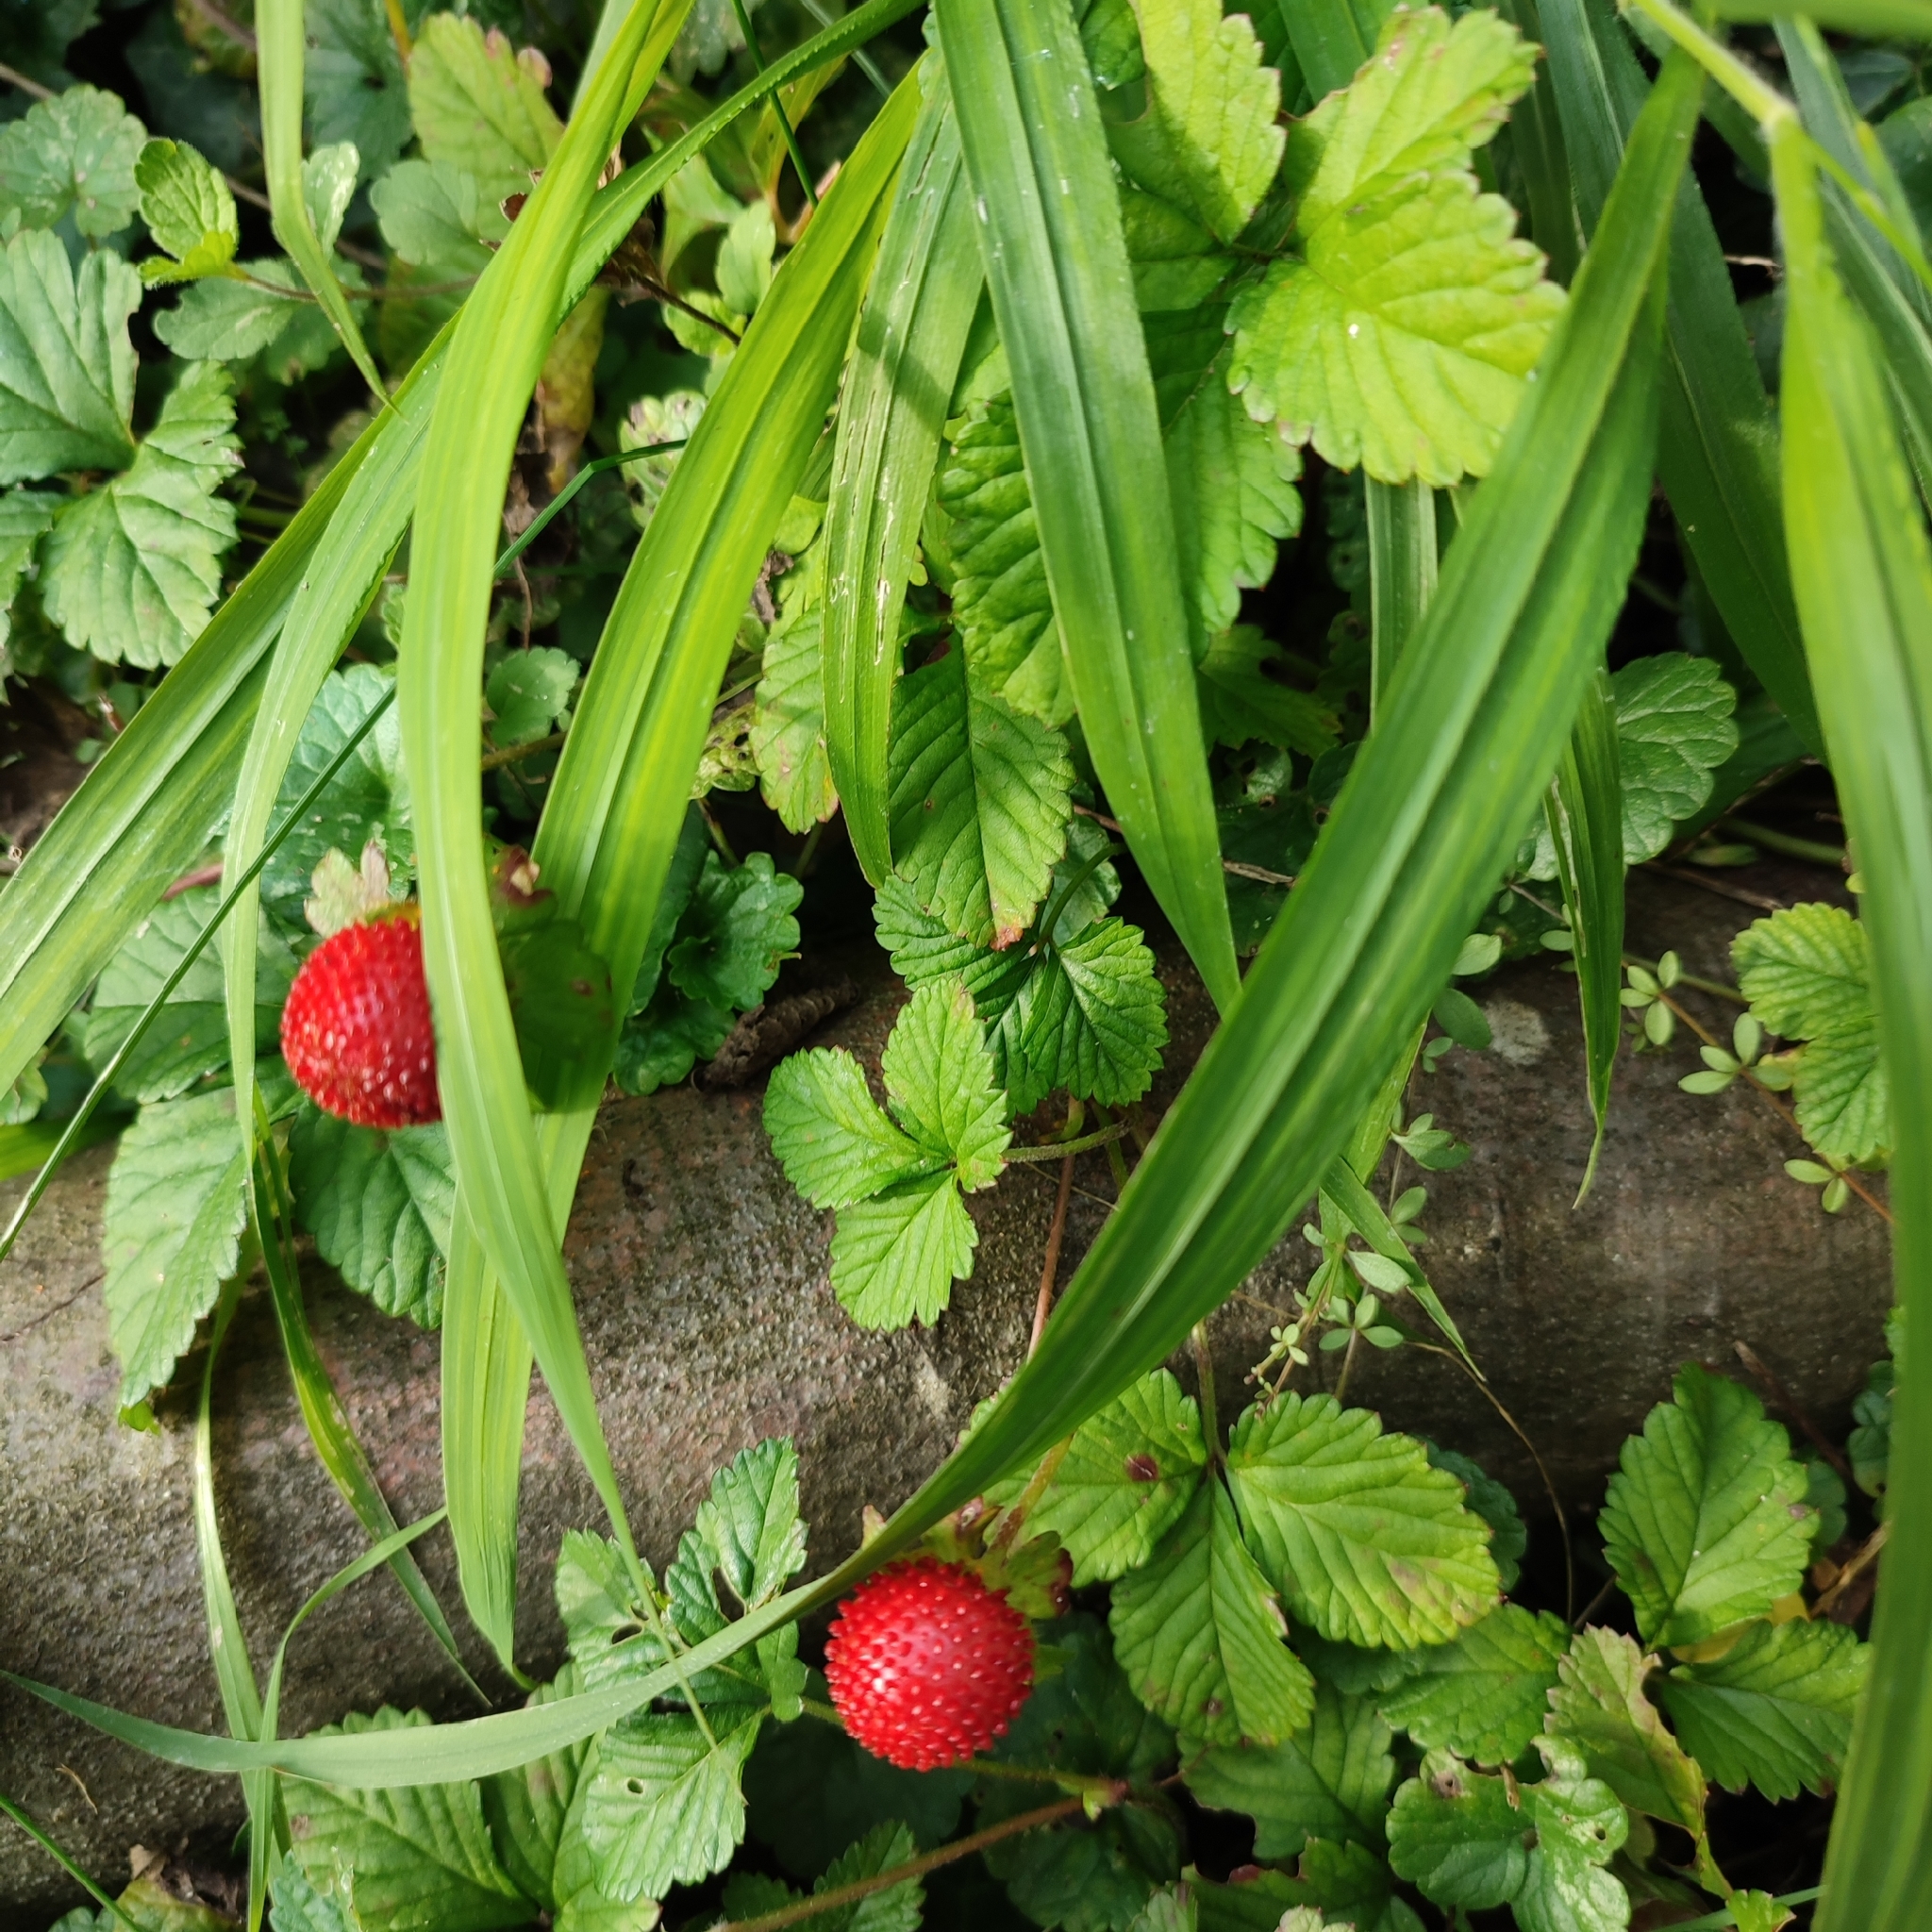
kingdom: Plantae
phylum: Tracheophyta
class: Magnoliopsida
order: Rosales
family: Rosaceae
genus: Potentilla
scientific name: Potentilla indica
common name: Yellow-flowered strawberry
